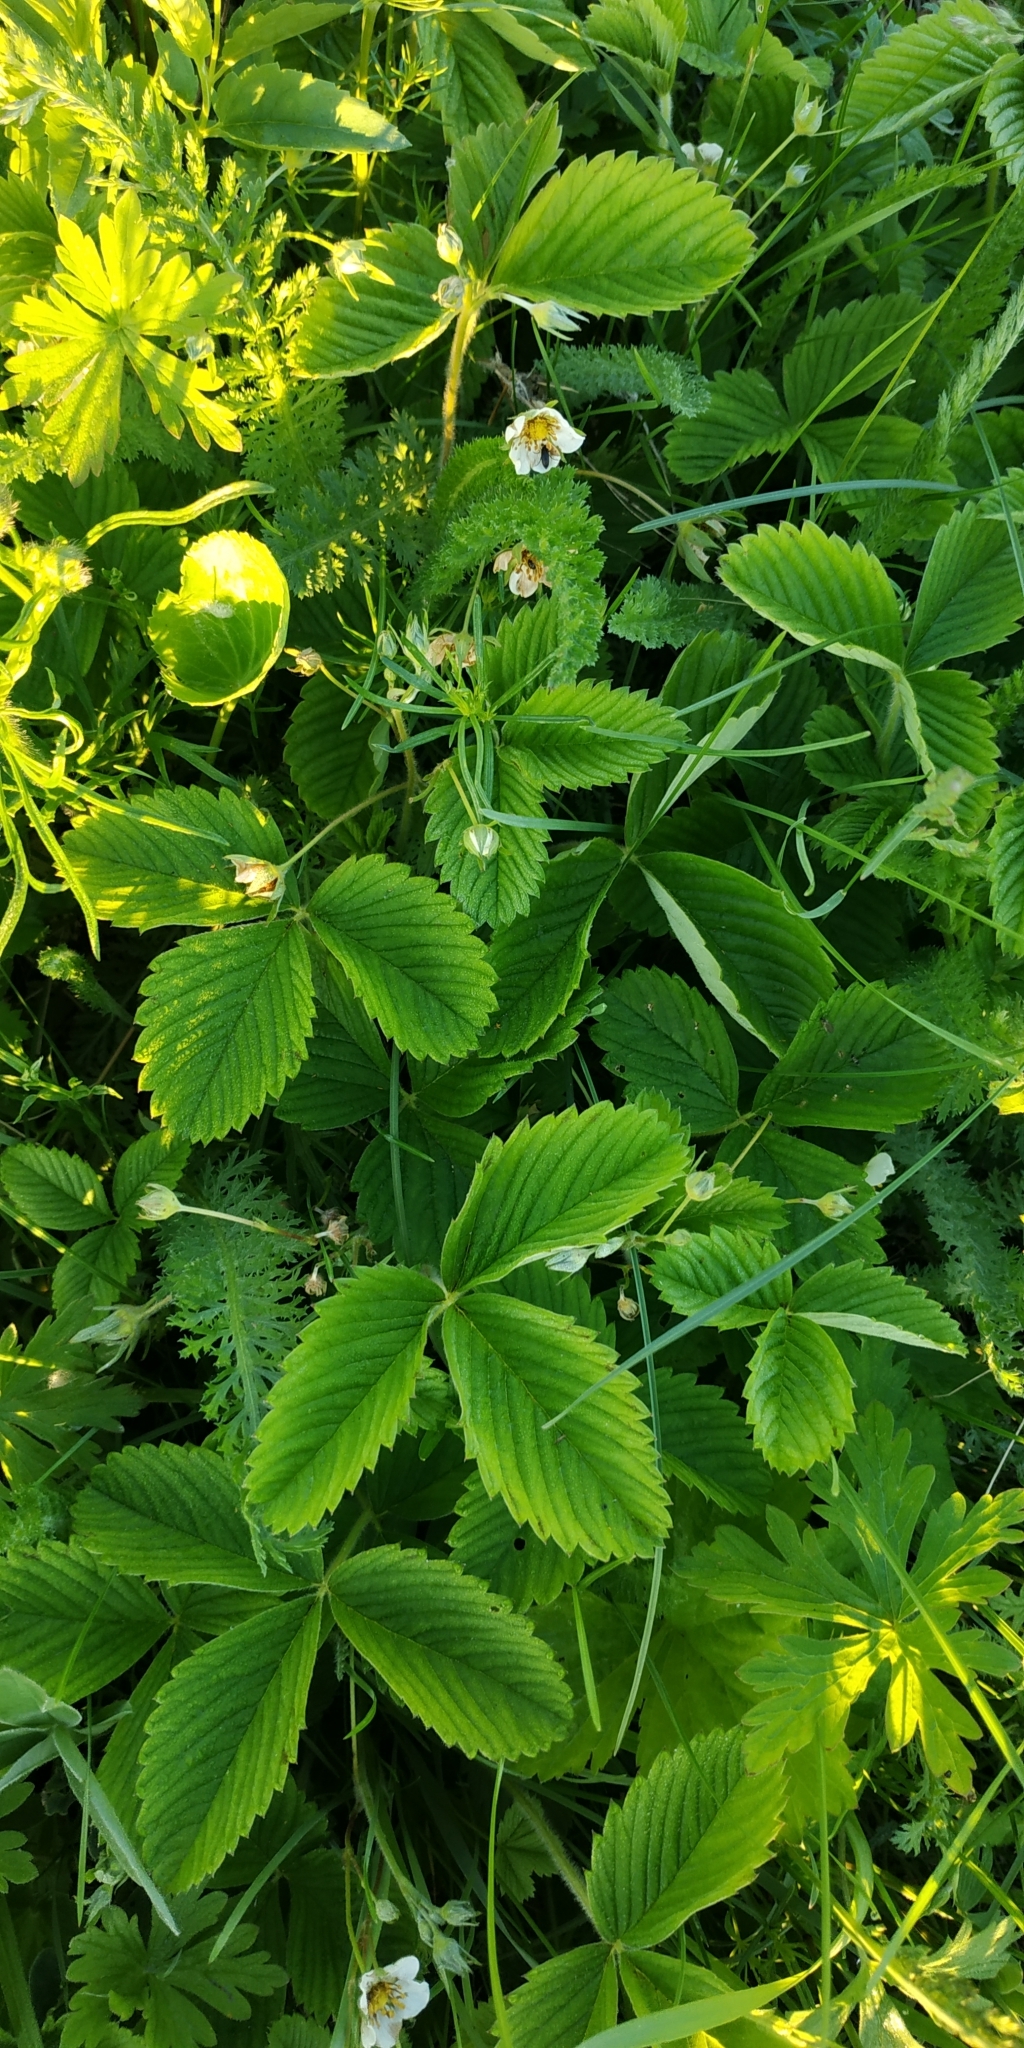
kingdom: Plantae
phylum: Tracheophyta
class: Magnoliopsida
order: Rosales
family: Rosaceae
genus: Fragaria
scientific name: Fragaria viridis
